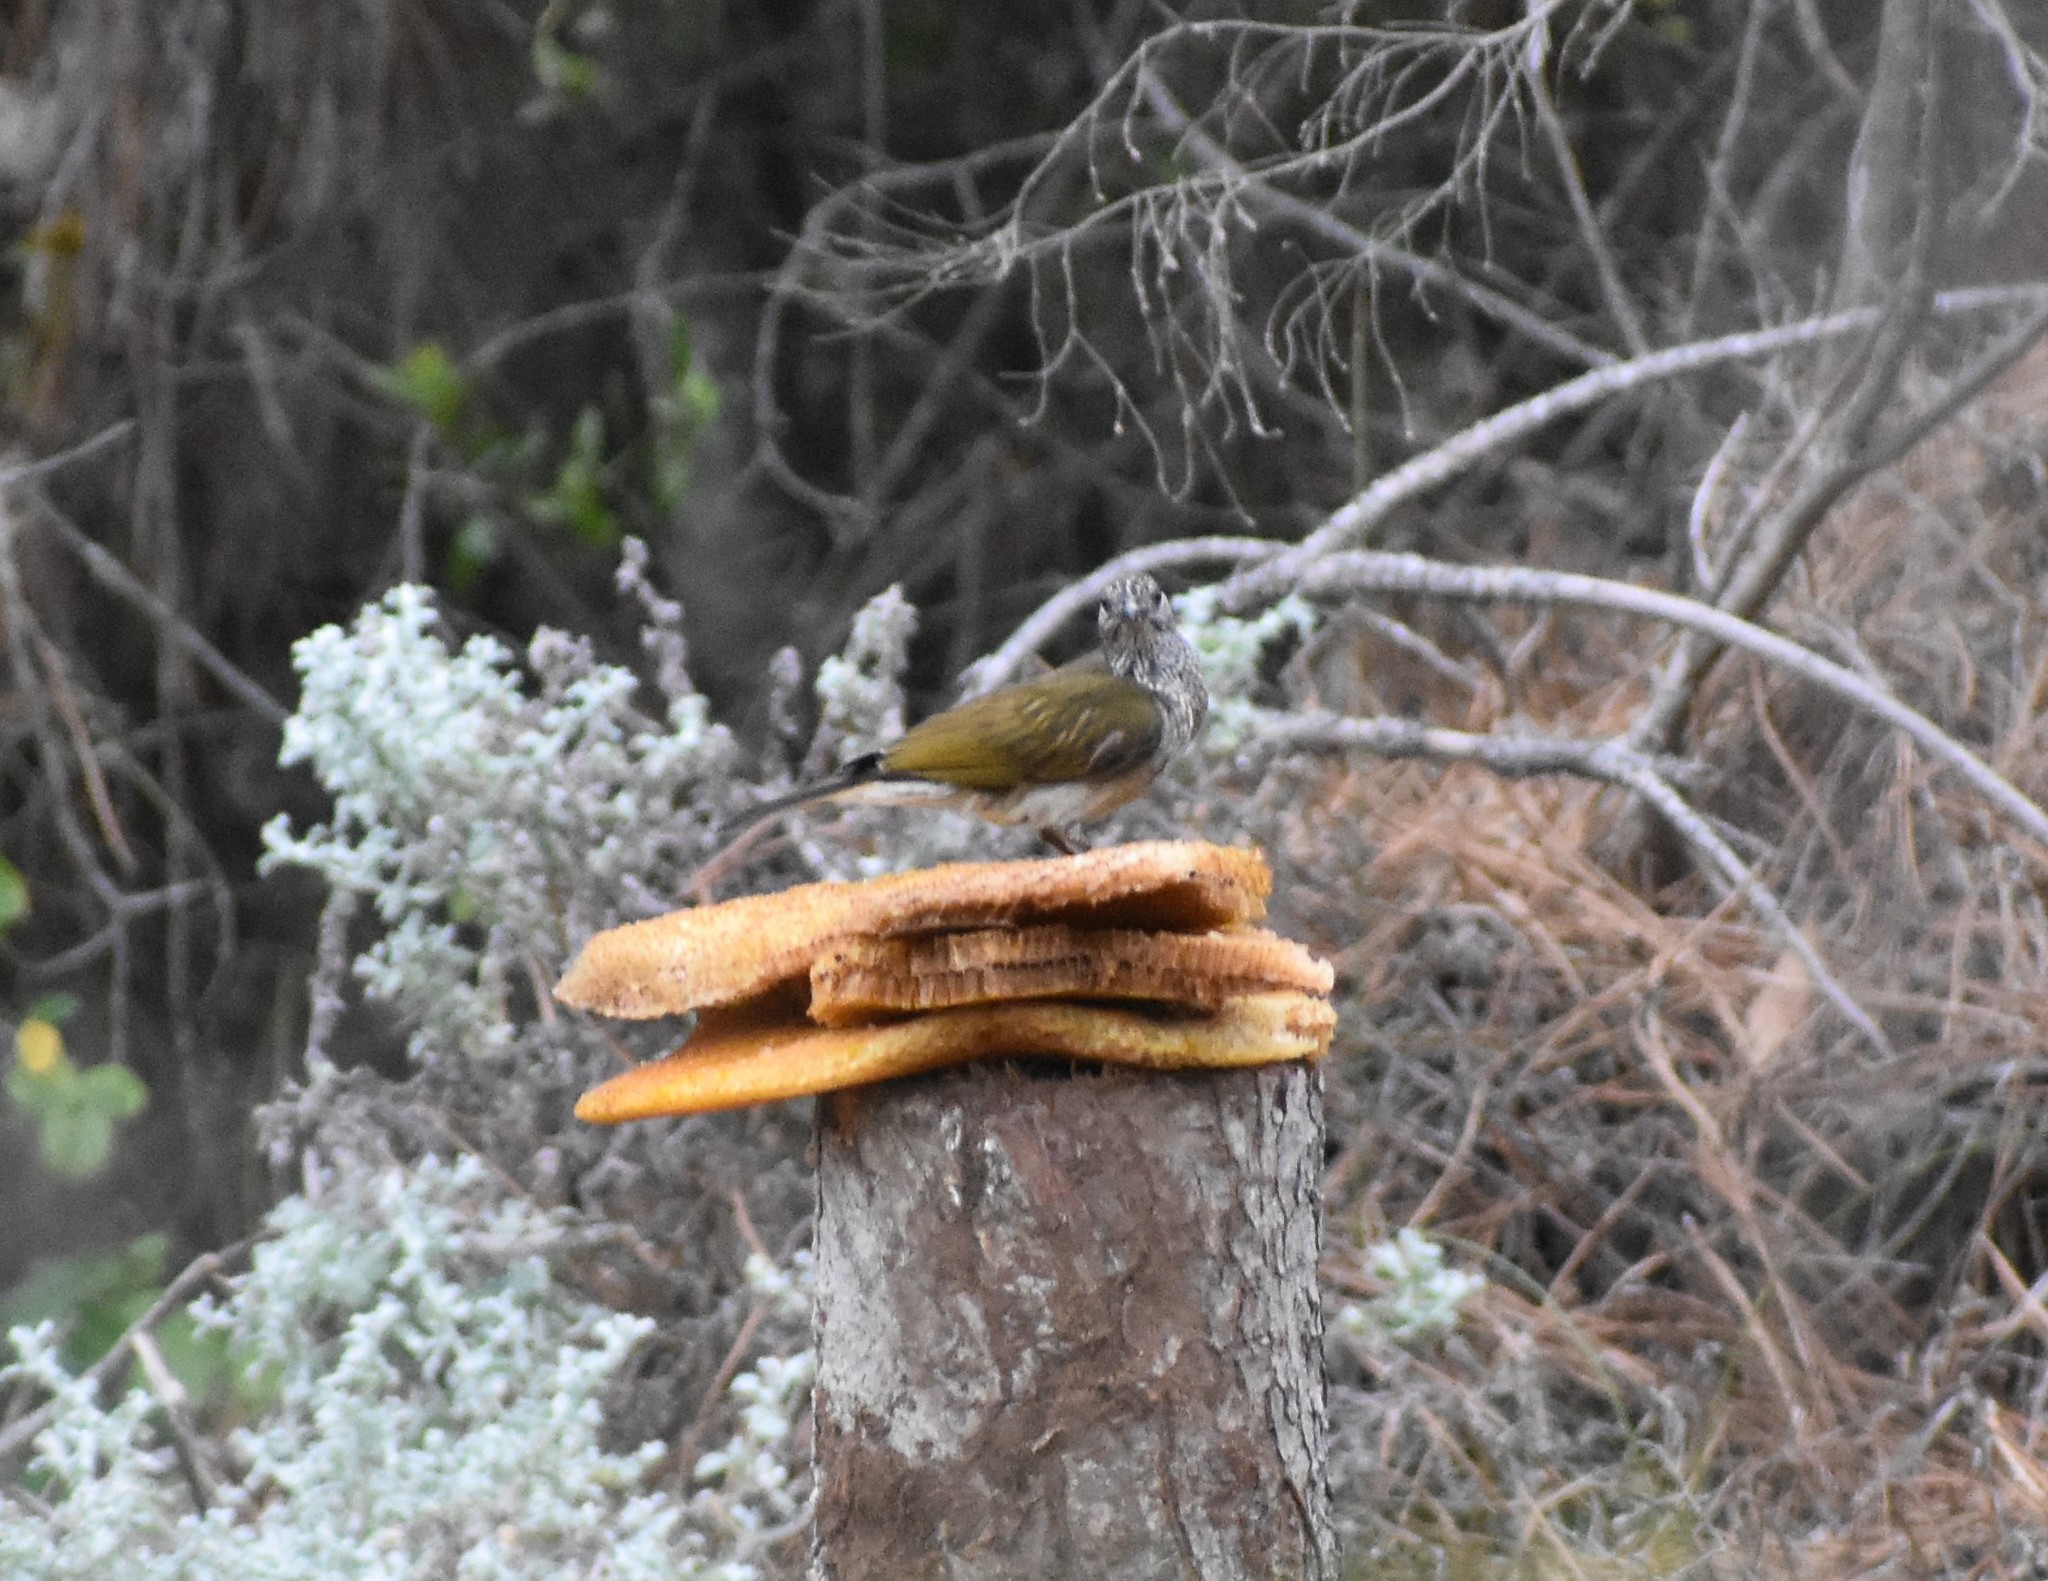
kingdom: Animalia
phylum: Chordata
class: Aves
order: Piciformes
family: Indicatoridae
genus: Indicator
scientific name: Indicator variegatus
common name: Scaly-throated honeyguide
